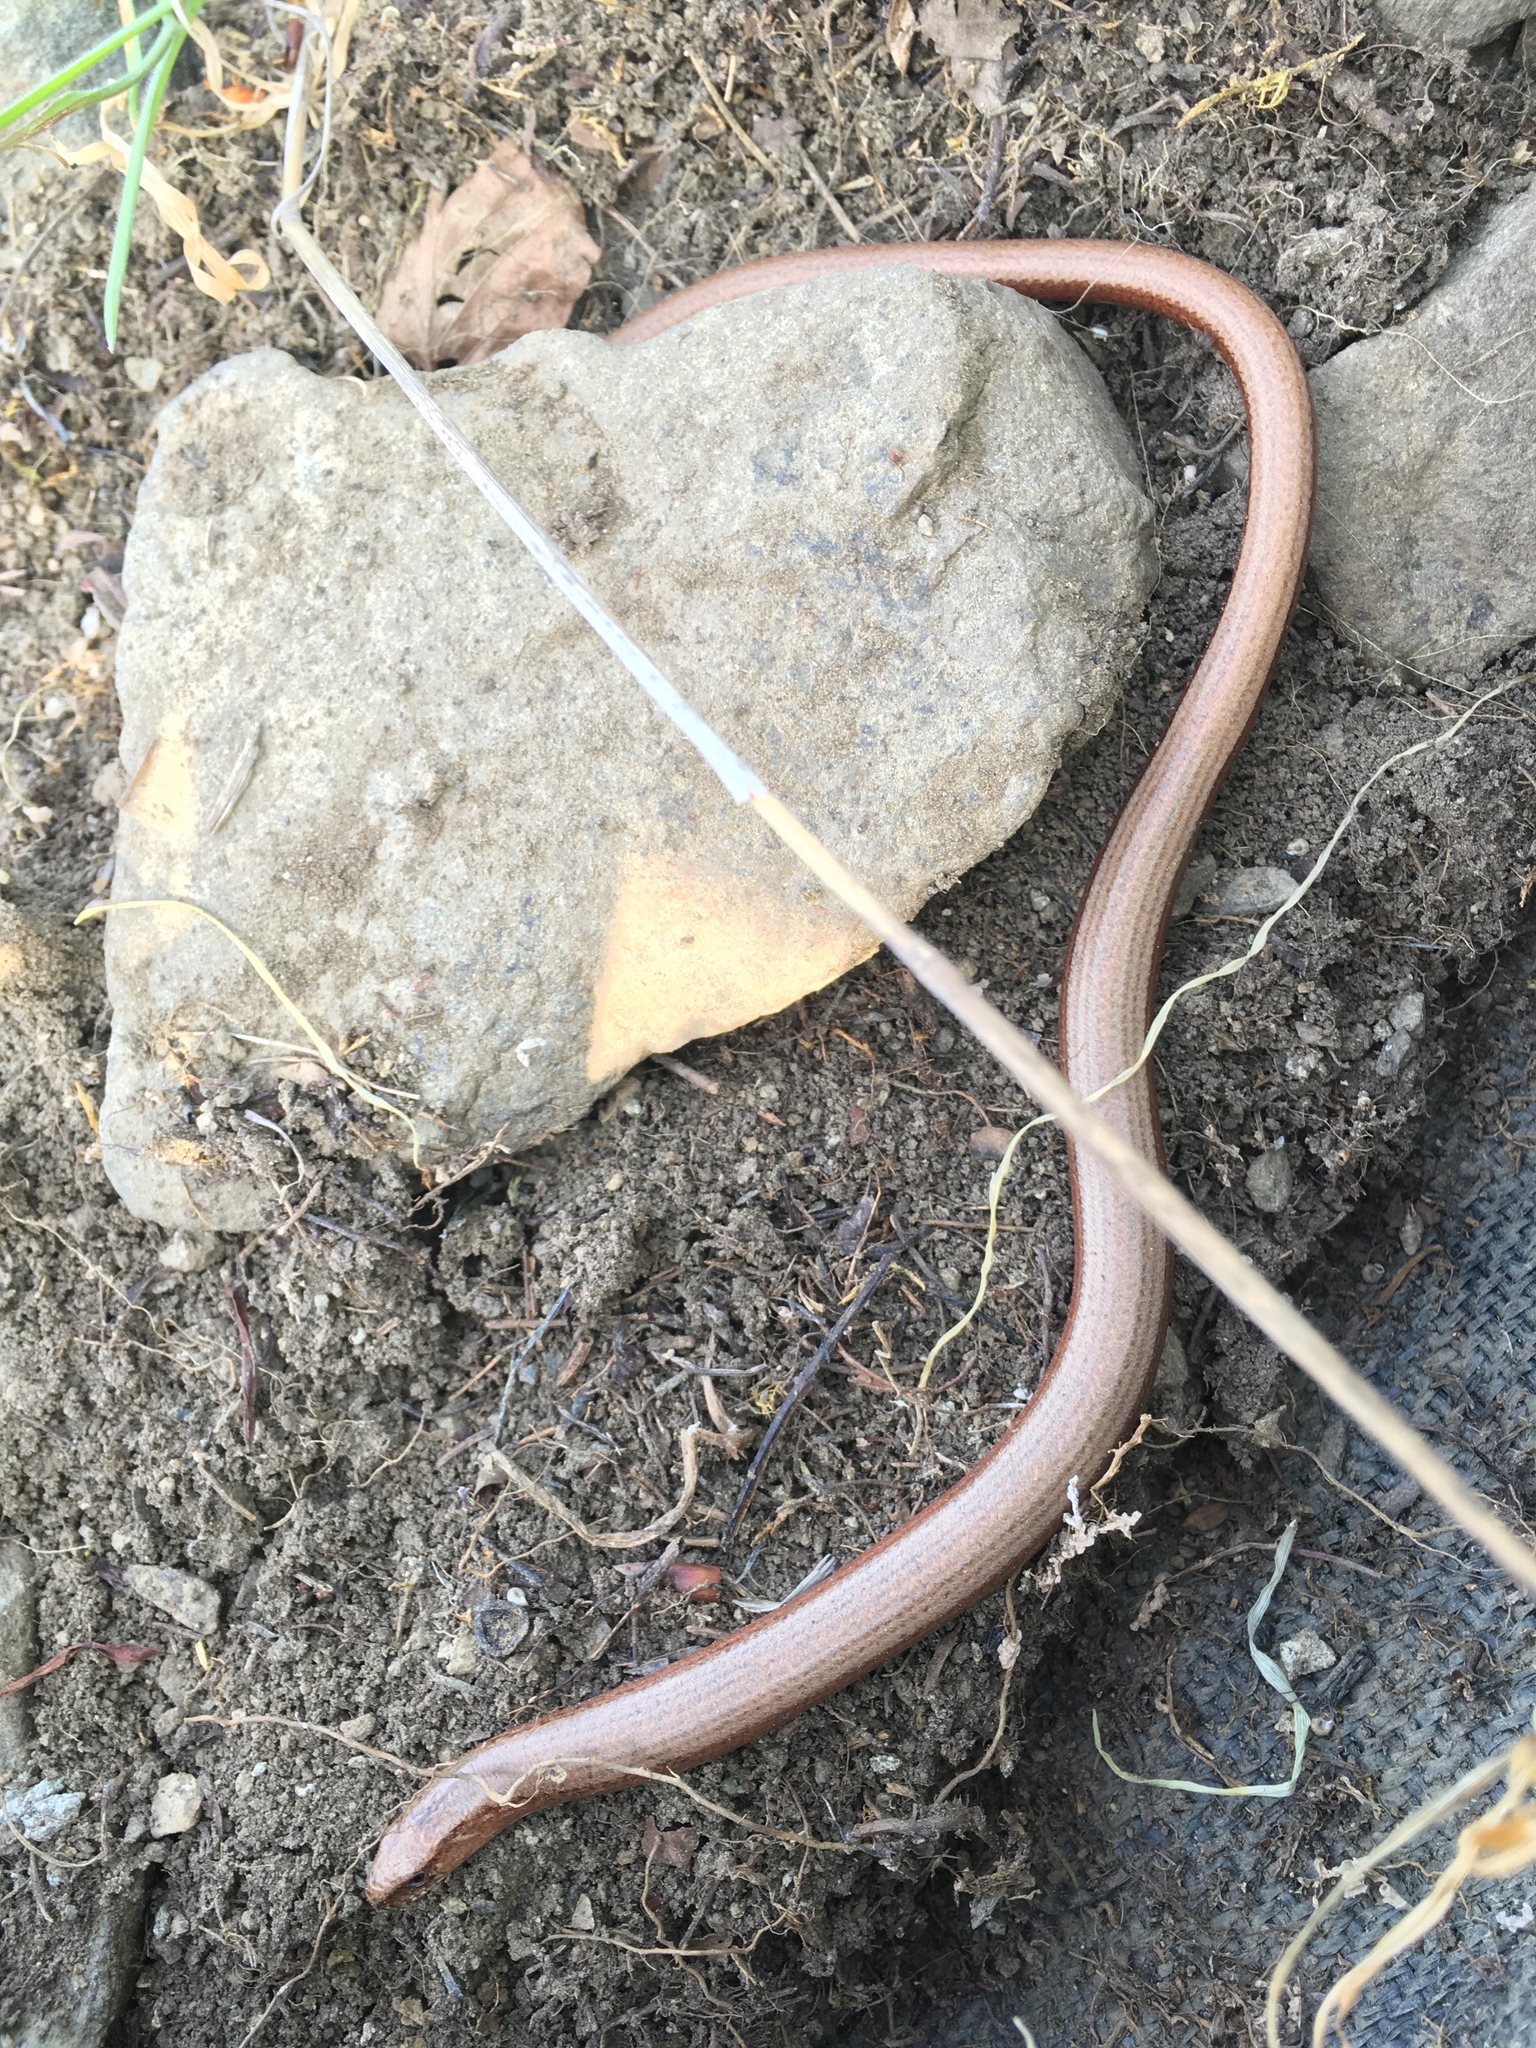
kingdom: Animalia
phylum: Chordata
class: Squamata
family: Anguidae
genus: Anguis
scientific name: Anguis fragilis
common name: Slow worm
